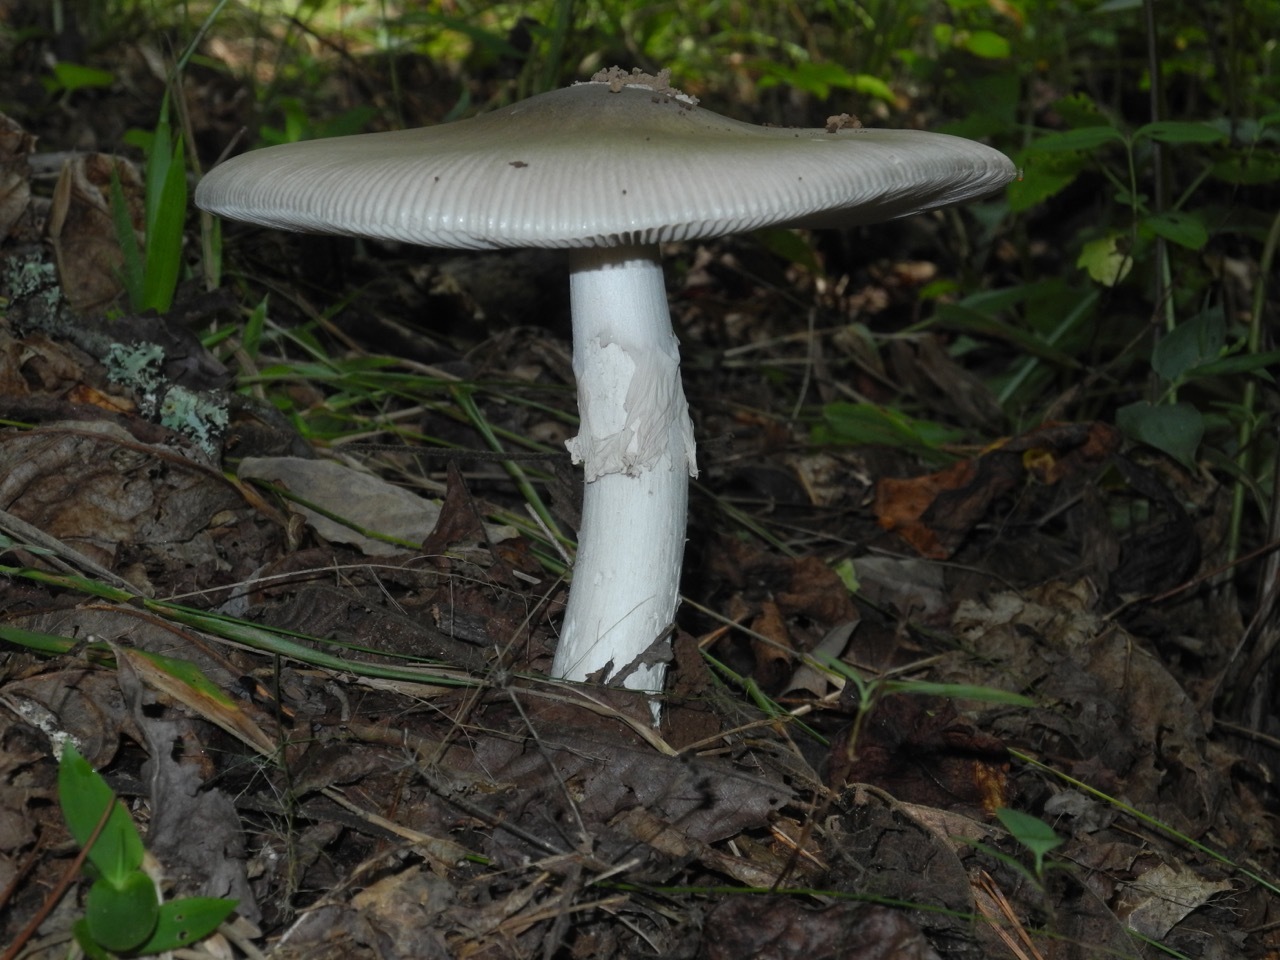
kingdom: Fungi
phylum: Basidiomycota
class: Agaricomycetes
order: Agaricales
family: Amanitaceae
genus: Amanita
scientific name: Amanita vaginata
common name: Grisette
